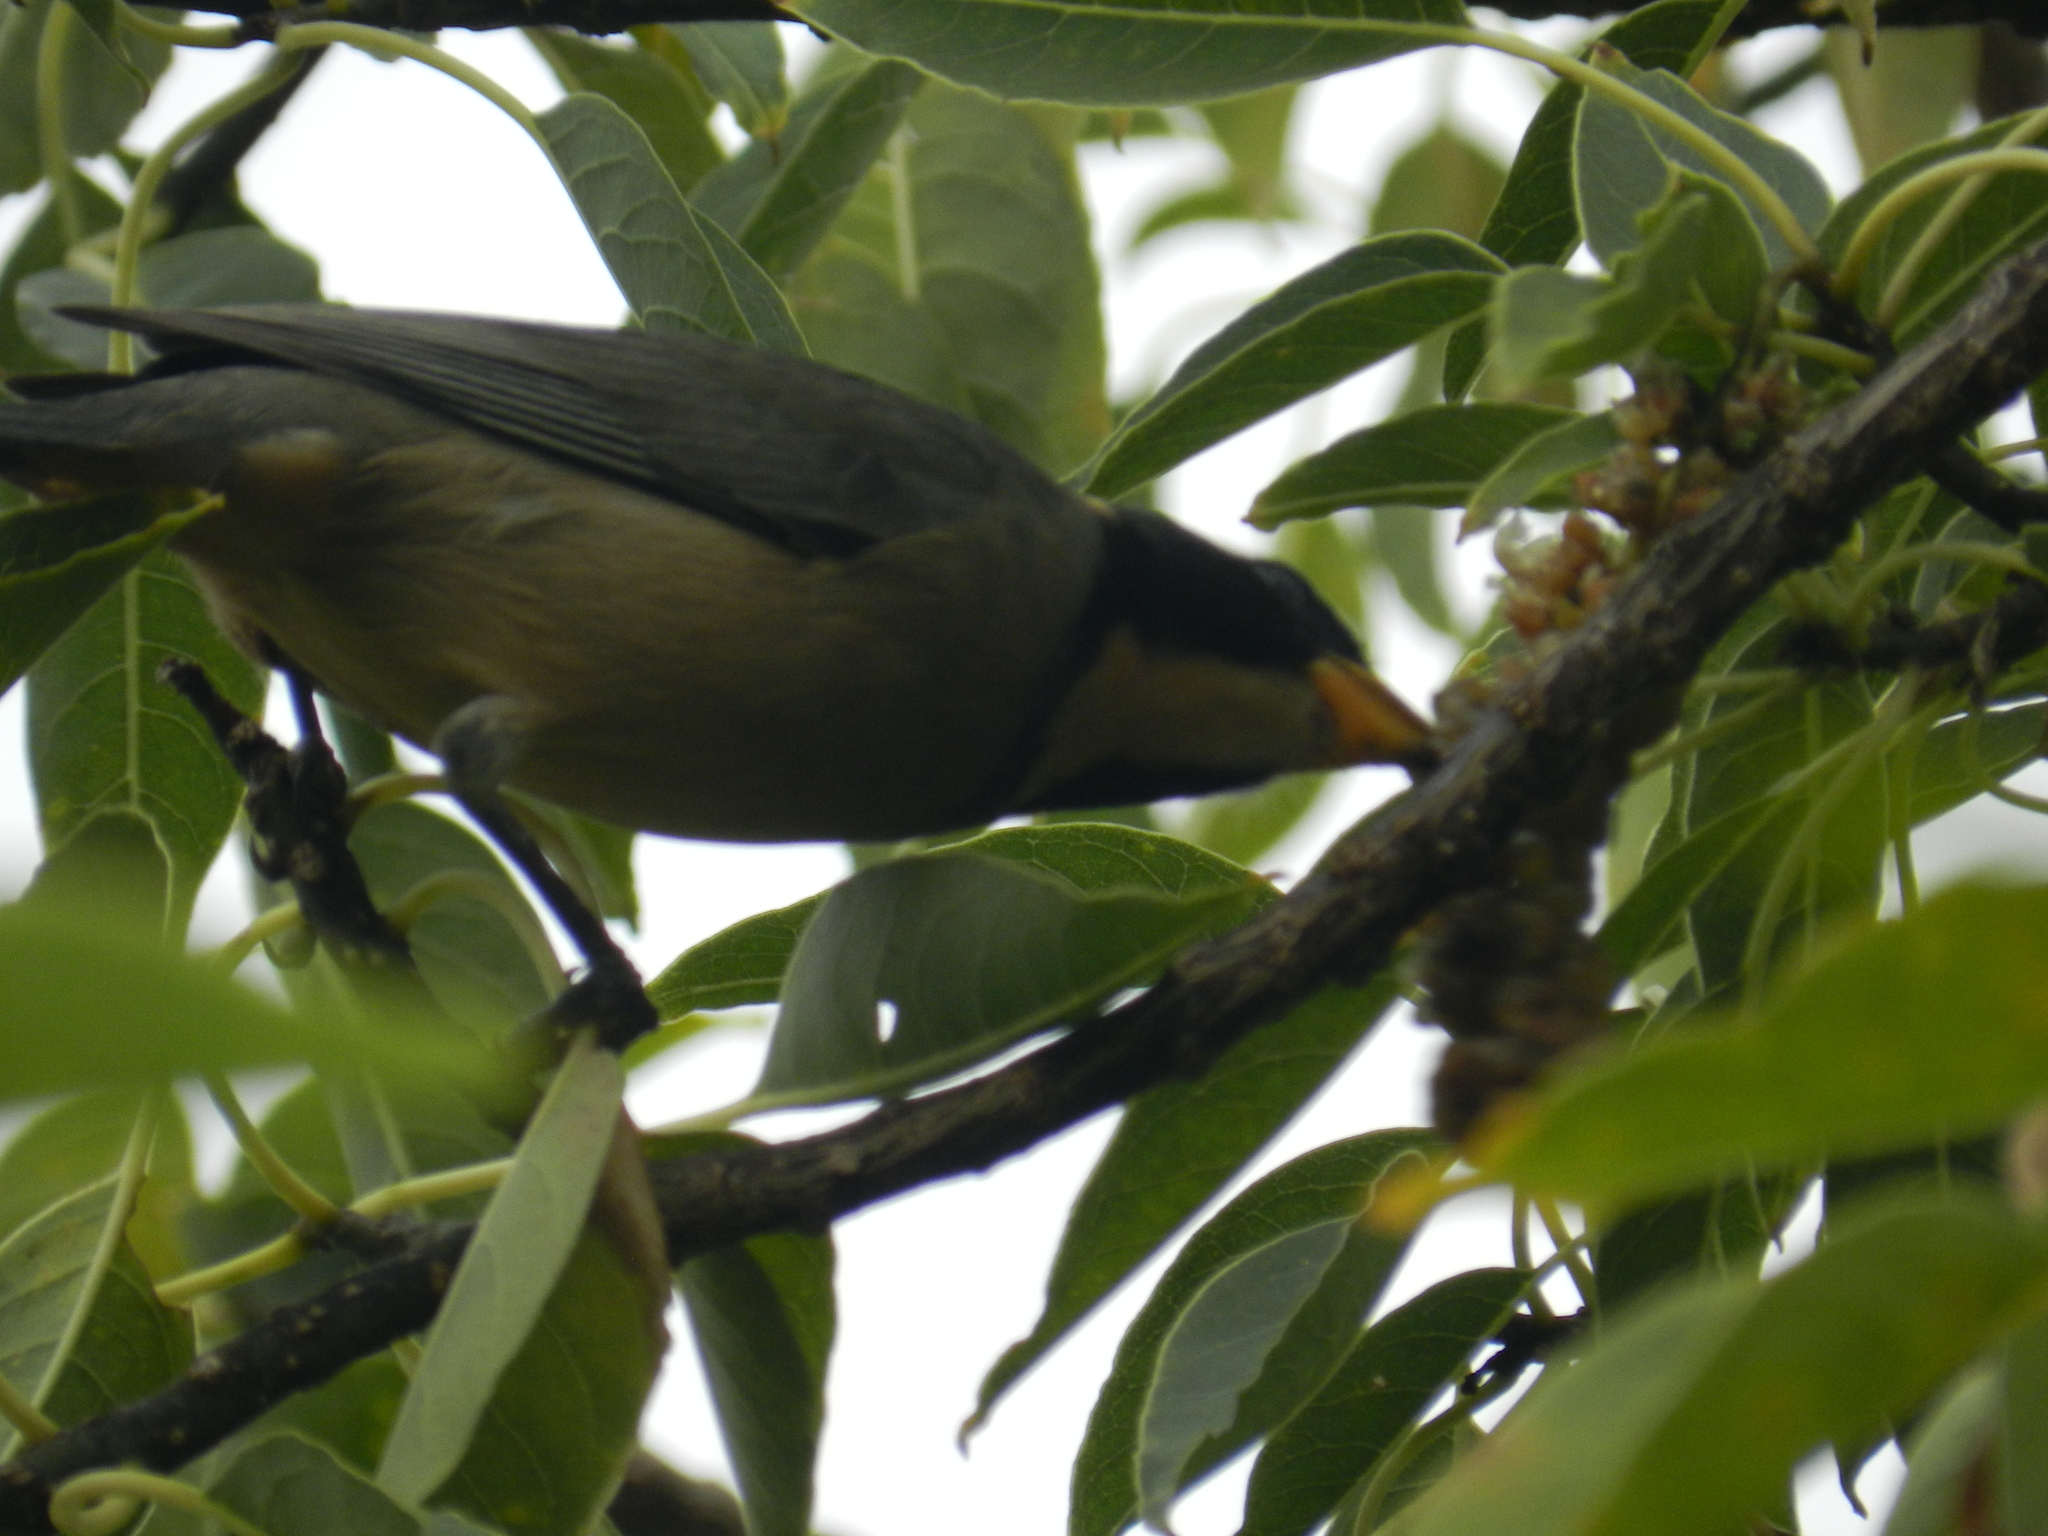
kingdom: Animalia
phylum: Chordata
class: Aves
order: Passeriformes
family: Thraupidae
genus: Saltator
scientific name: Saltator aurantiirostris
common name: Golden-billed saltator
